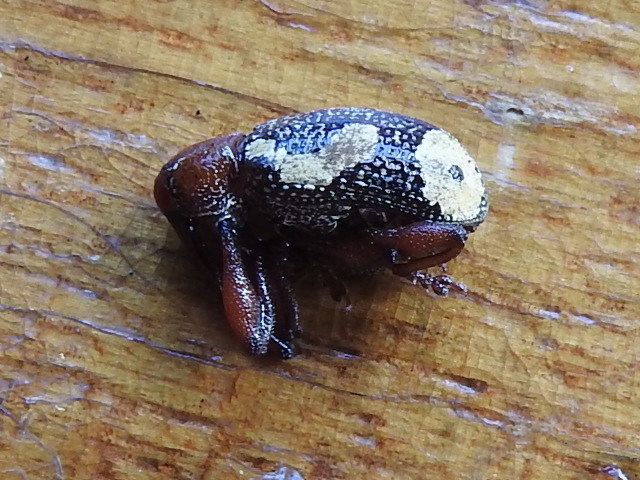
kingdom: Animalia
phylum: Arthropoda
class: Insecta
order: Coleoptera
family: Curculionidae
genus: Heilipus
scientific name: Heilipus
